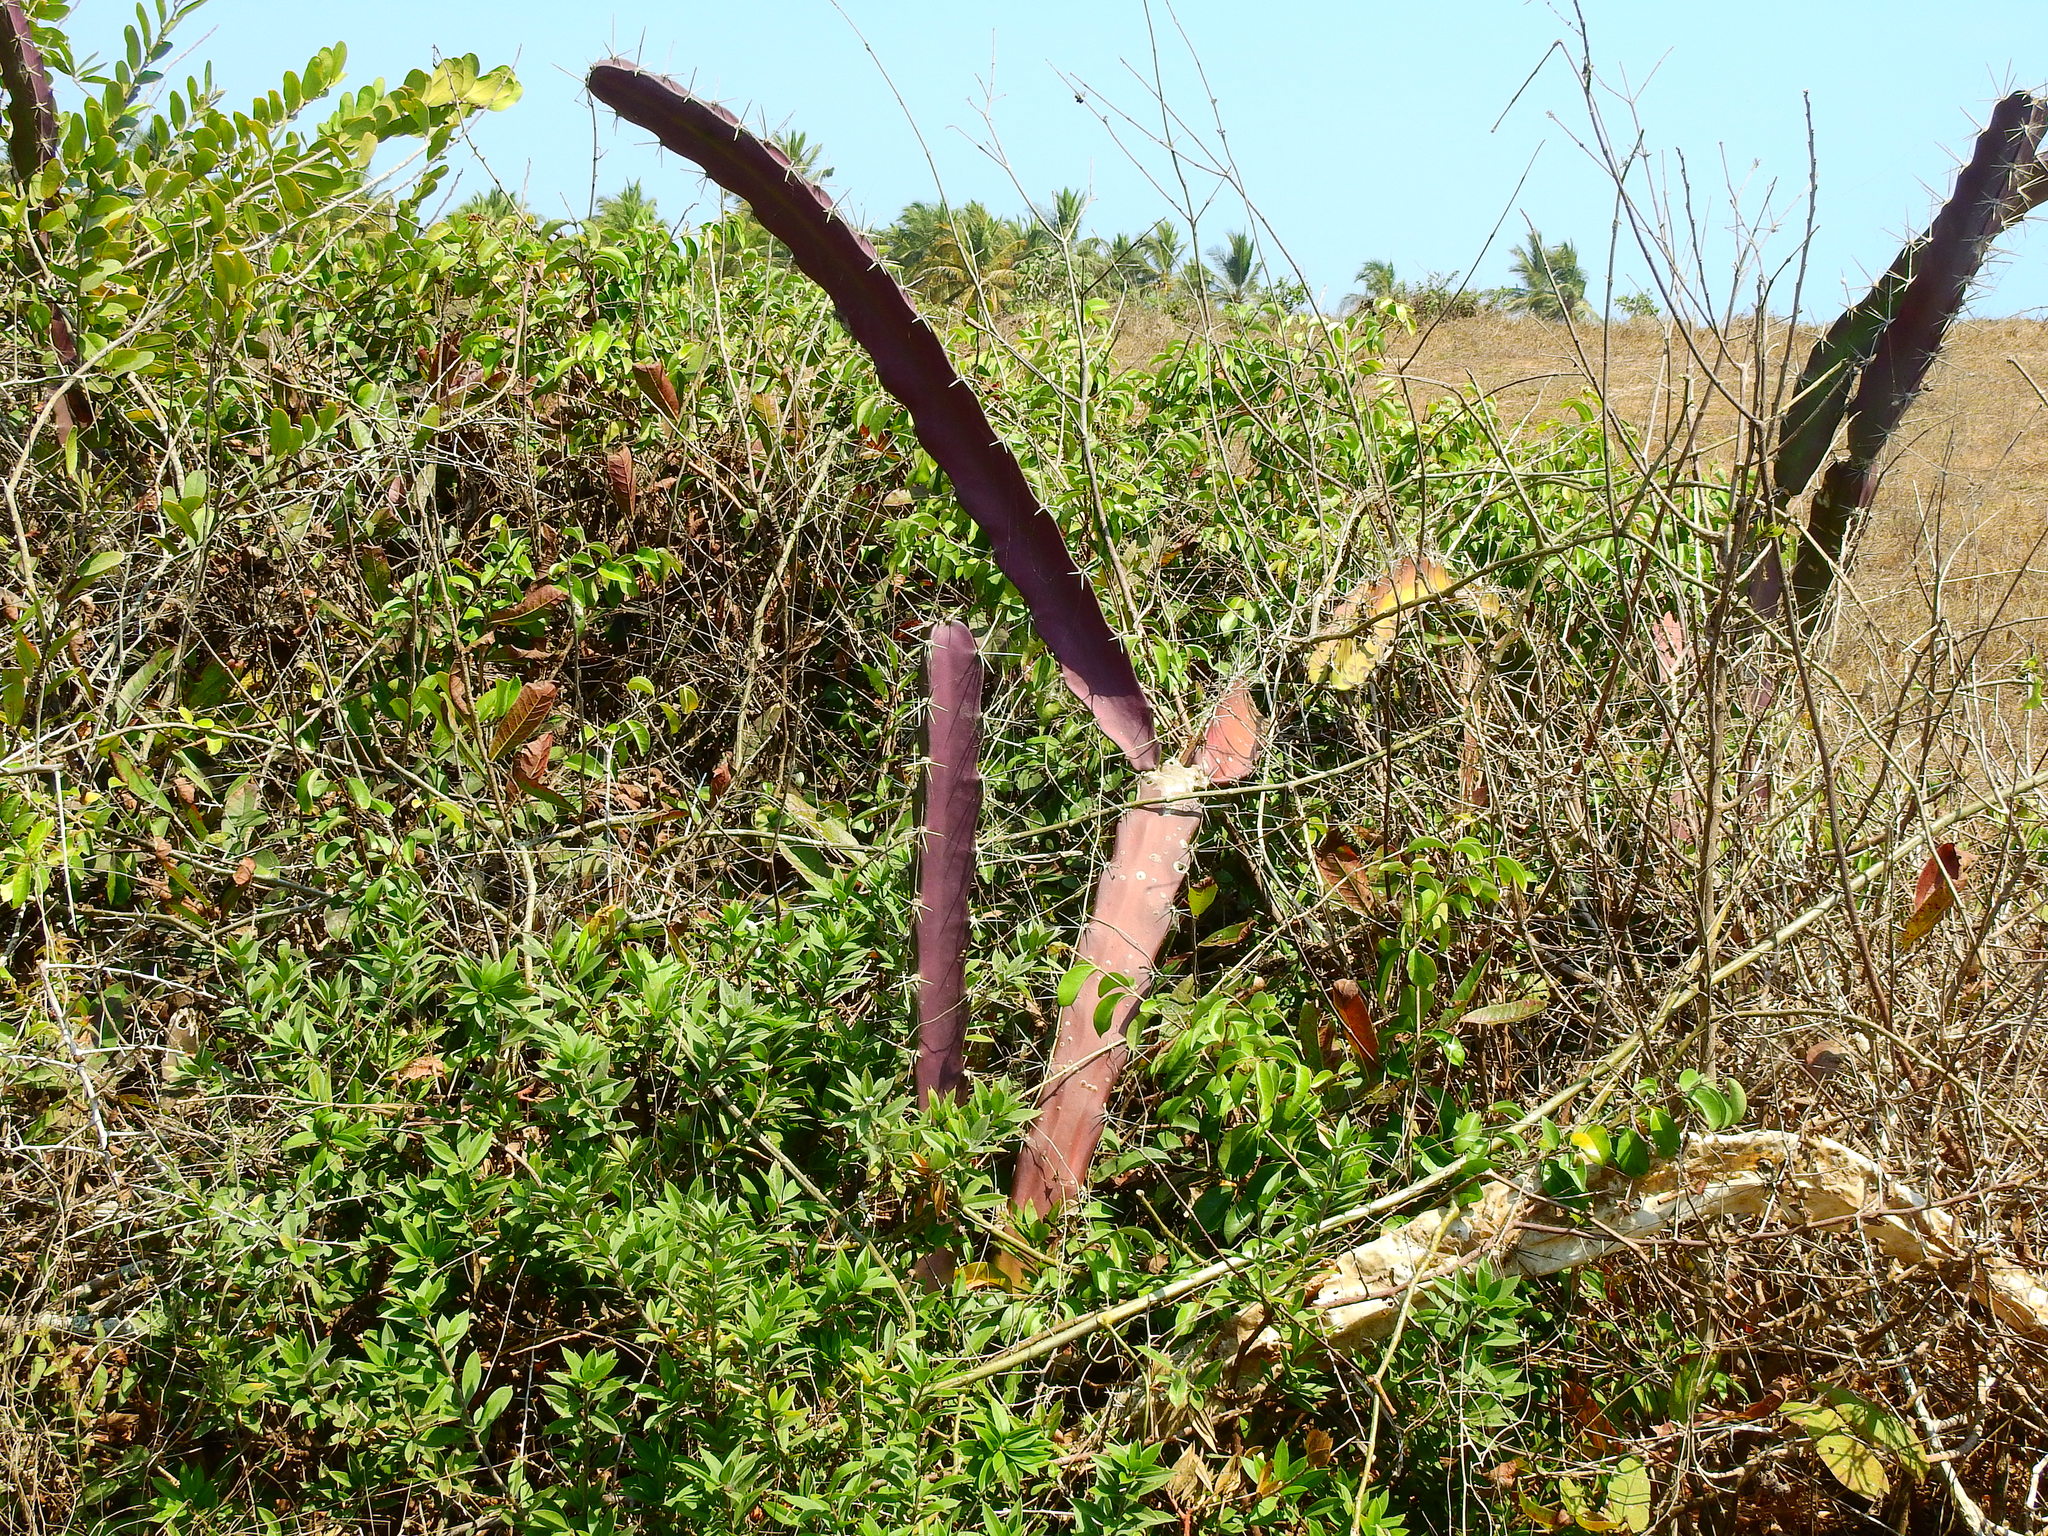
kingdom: Plantae
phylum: Tracheophyta
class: Magnoliopsida
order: Caryophyllales
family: Cactaceae
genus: Acanthocereus
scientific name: Acanthocereus tetragonus
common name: Triangle cactus
